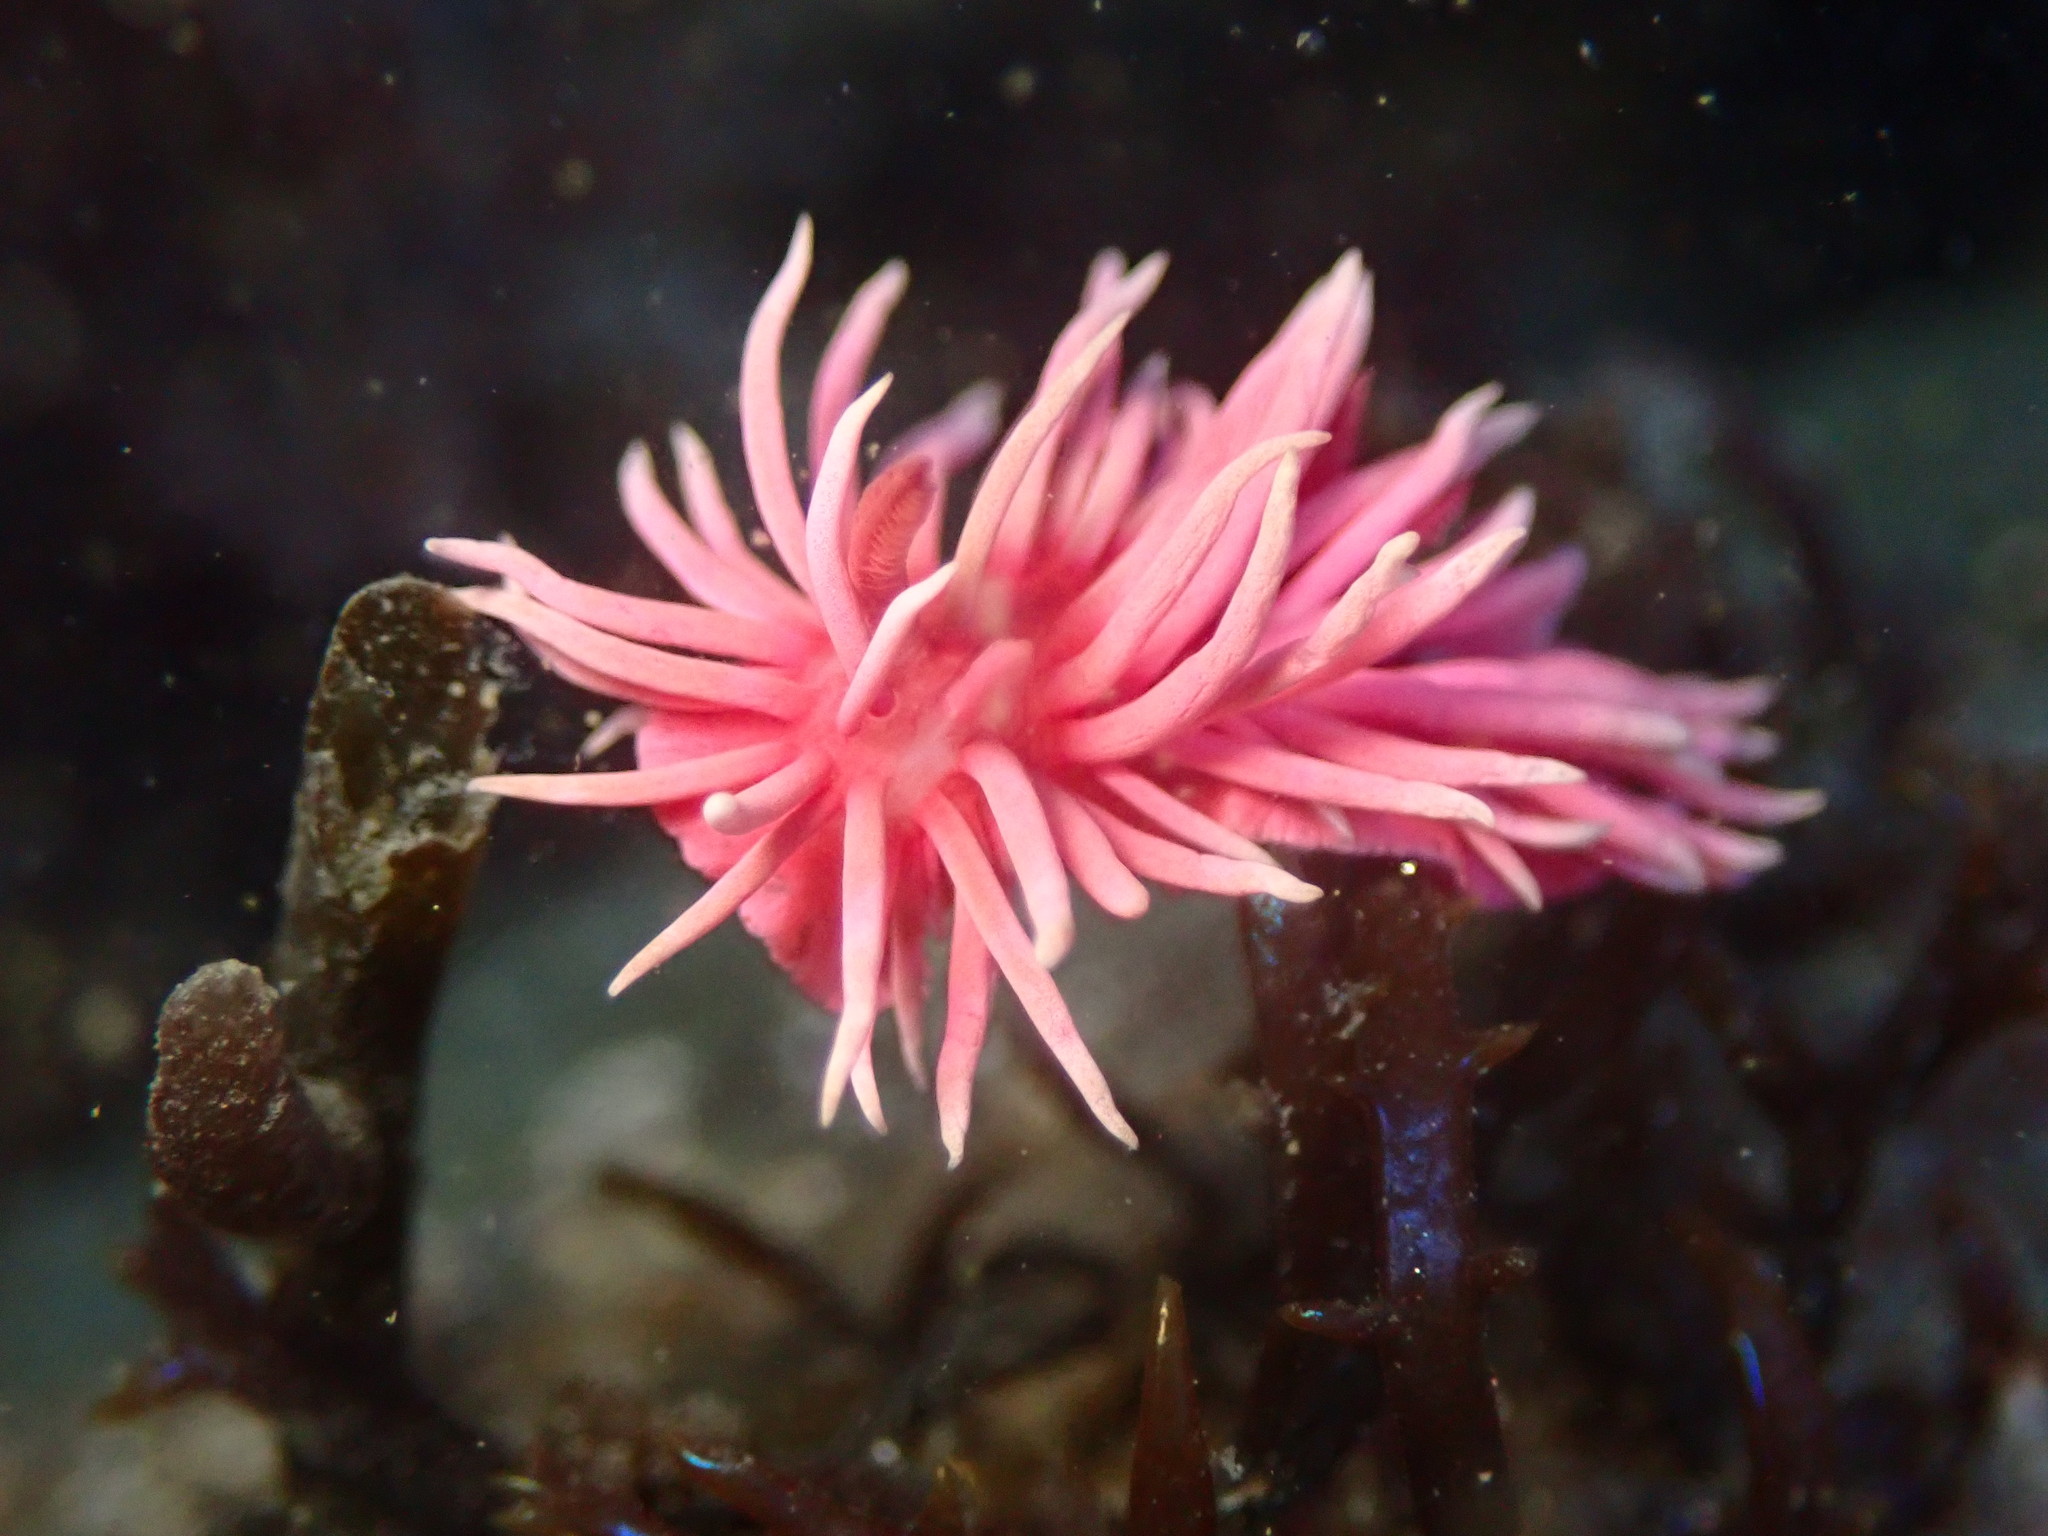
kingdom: Animalia
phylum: Mollusca
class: Gastropoda
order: Nudibranchia
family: Goniodorididae
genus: Okenia
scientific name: Okenia
